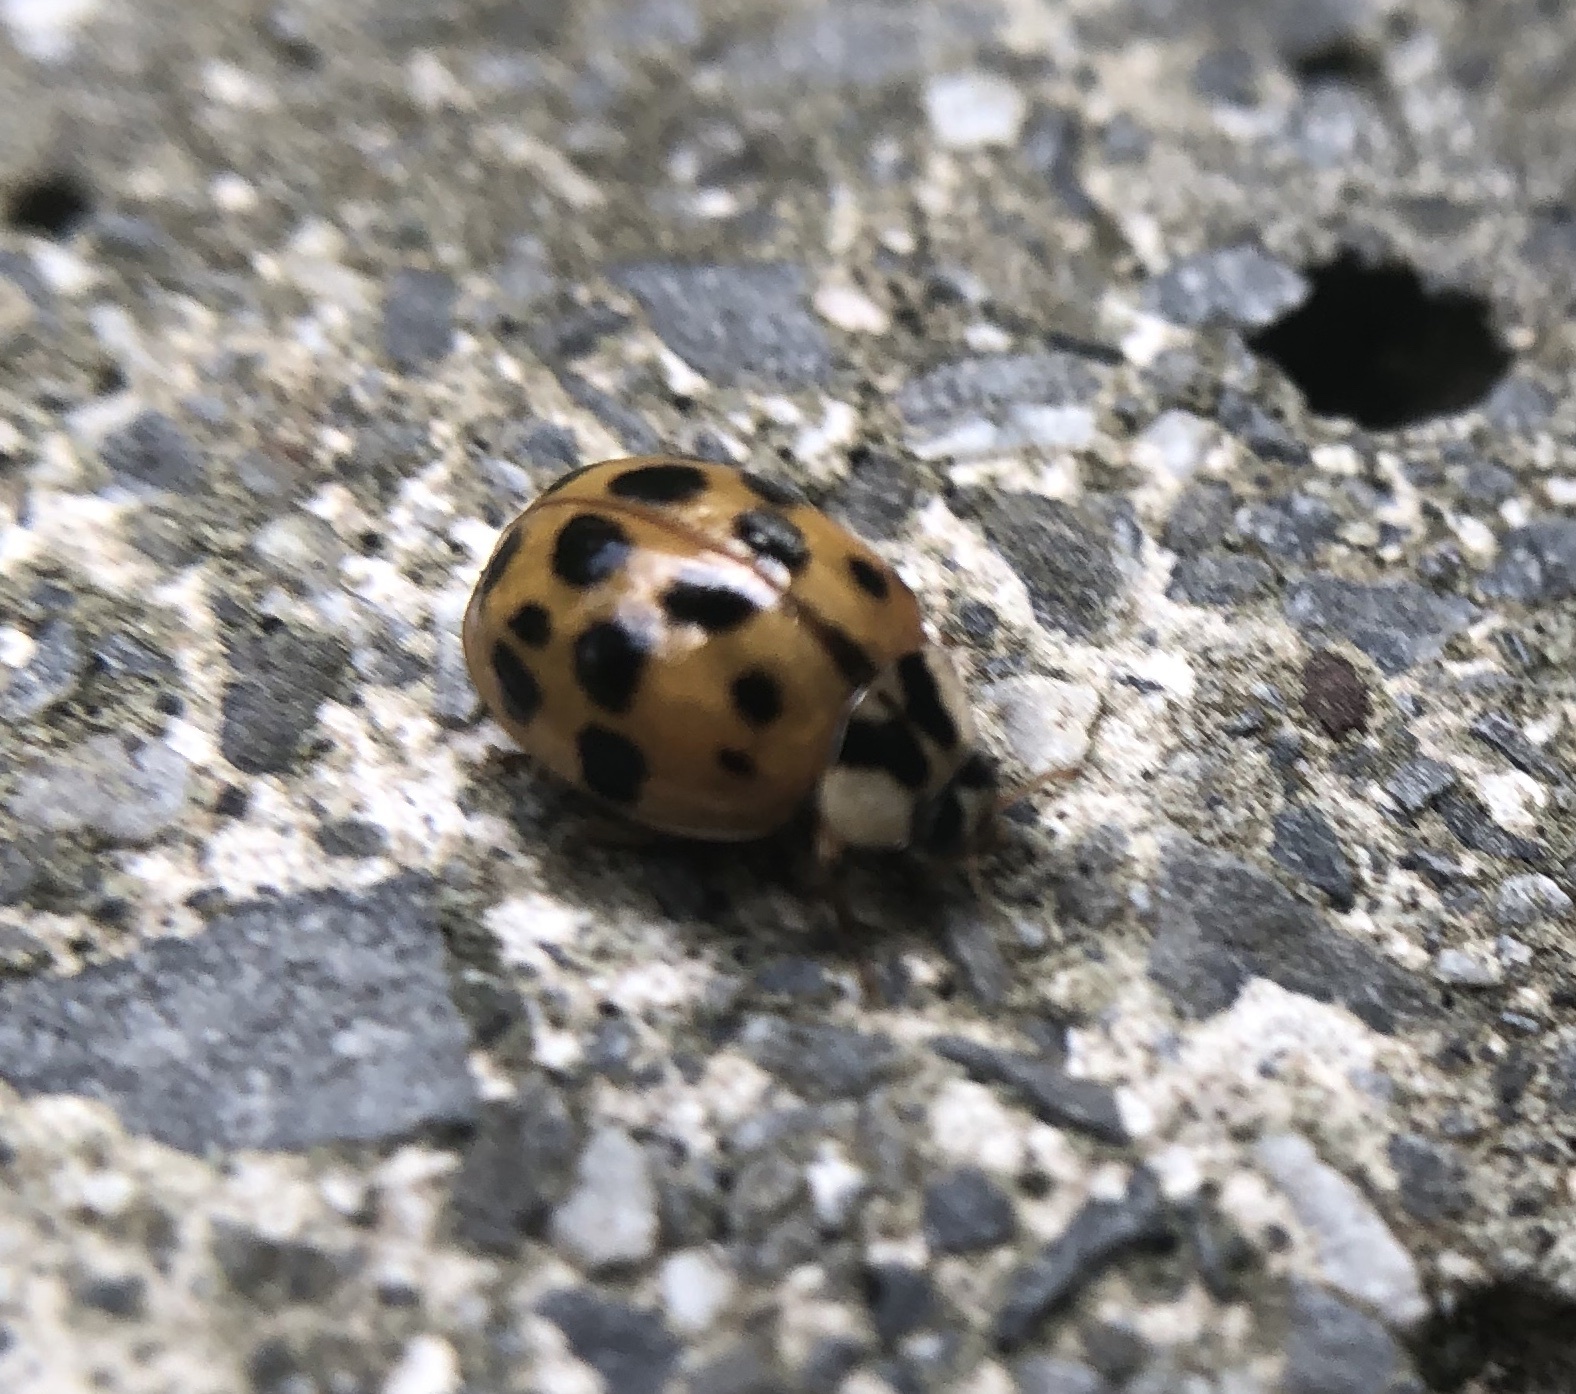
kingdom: Animalia
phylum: Arthropoda
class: Insecta
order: Coleoptera
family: Coccinellidae
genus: Harmonia
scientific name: Harmonia axyridis
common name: Harlequin ladybird
